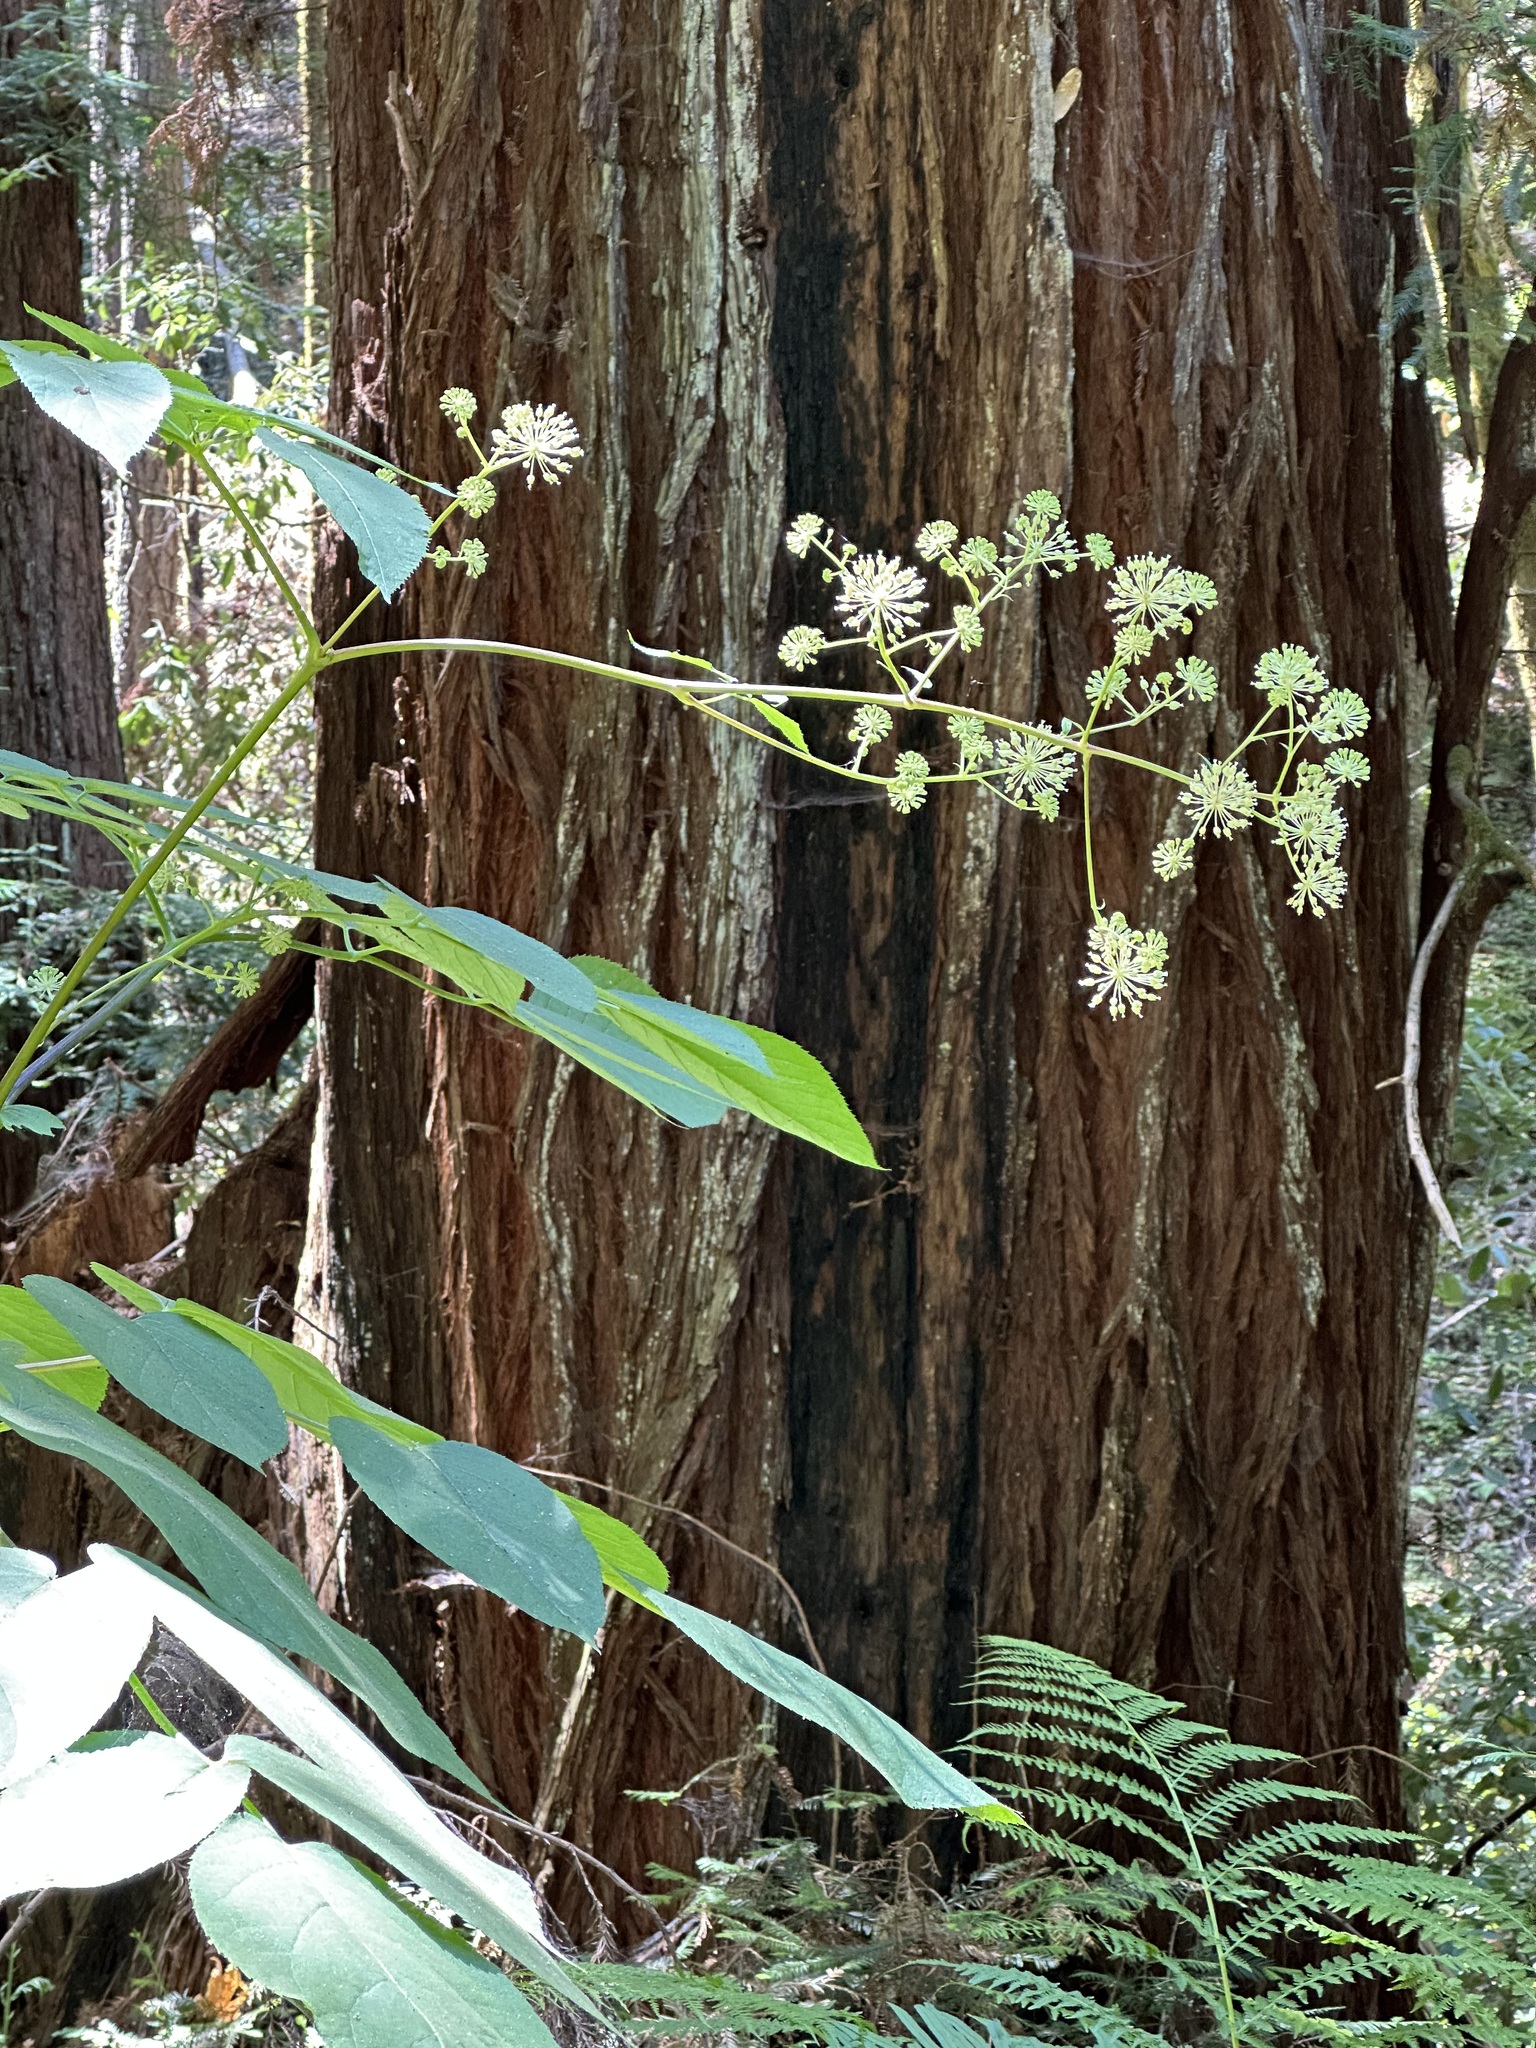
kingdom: Plantae
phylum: Tracheophyta
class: Magnoliopsida
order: Apiales
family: Araliaceae
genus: Aralia
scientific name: Aralia californica
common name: California-ginseng
